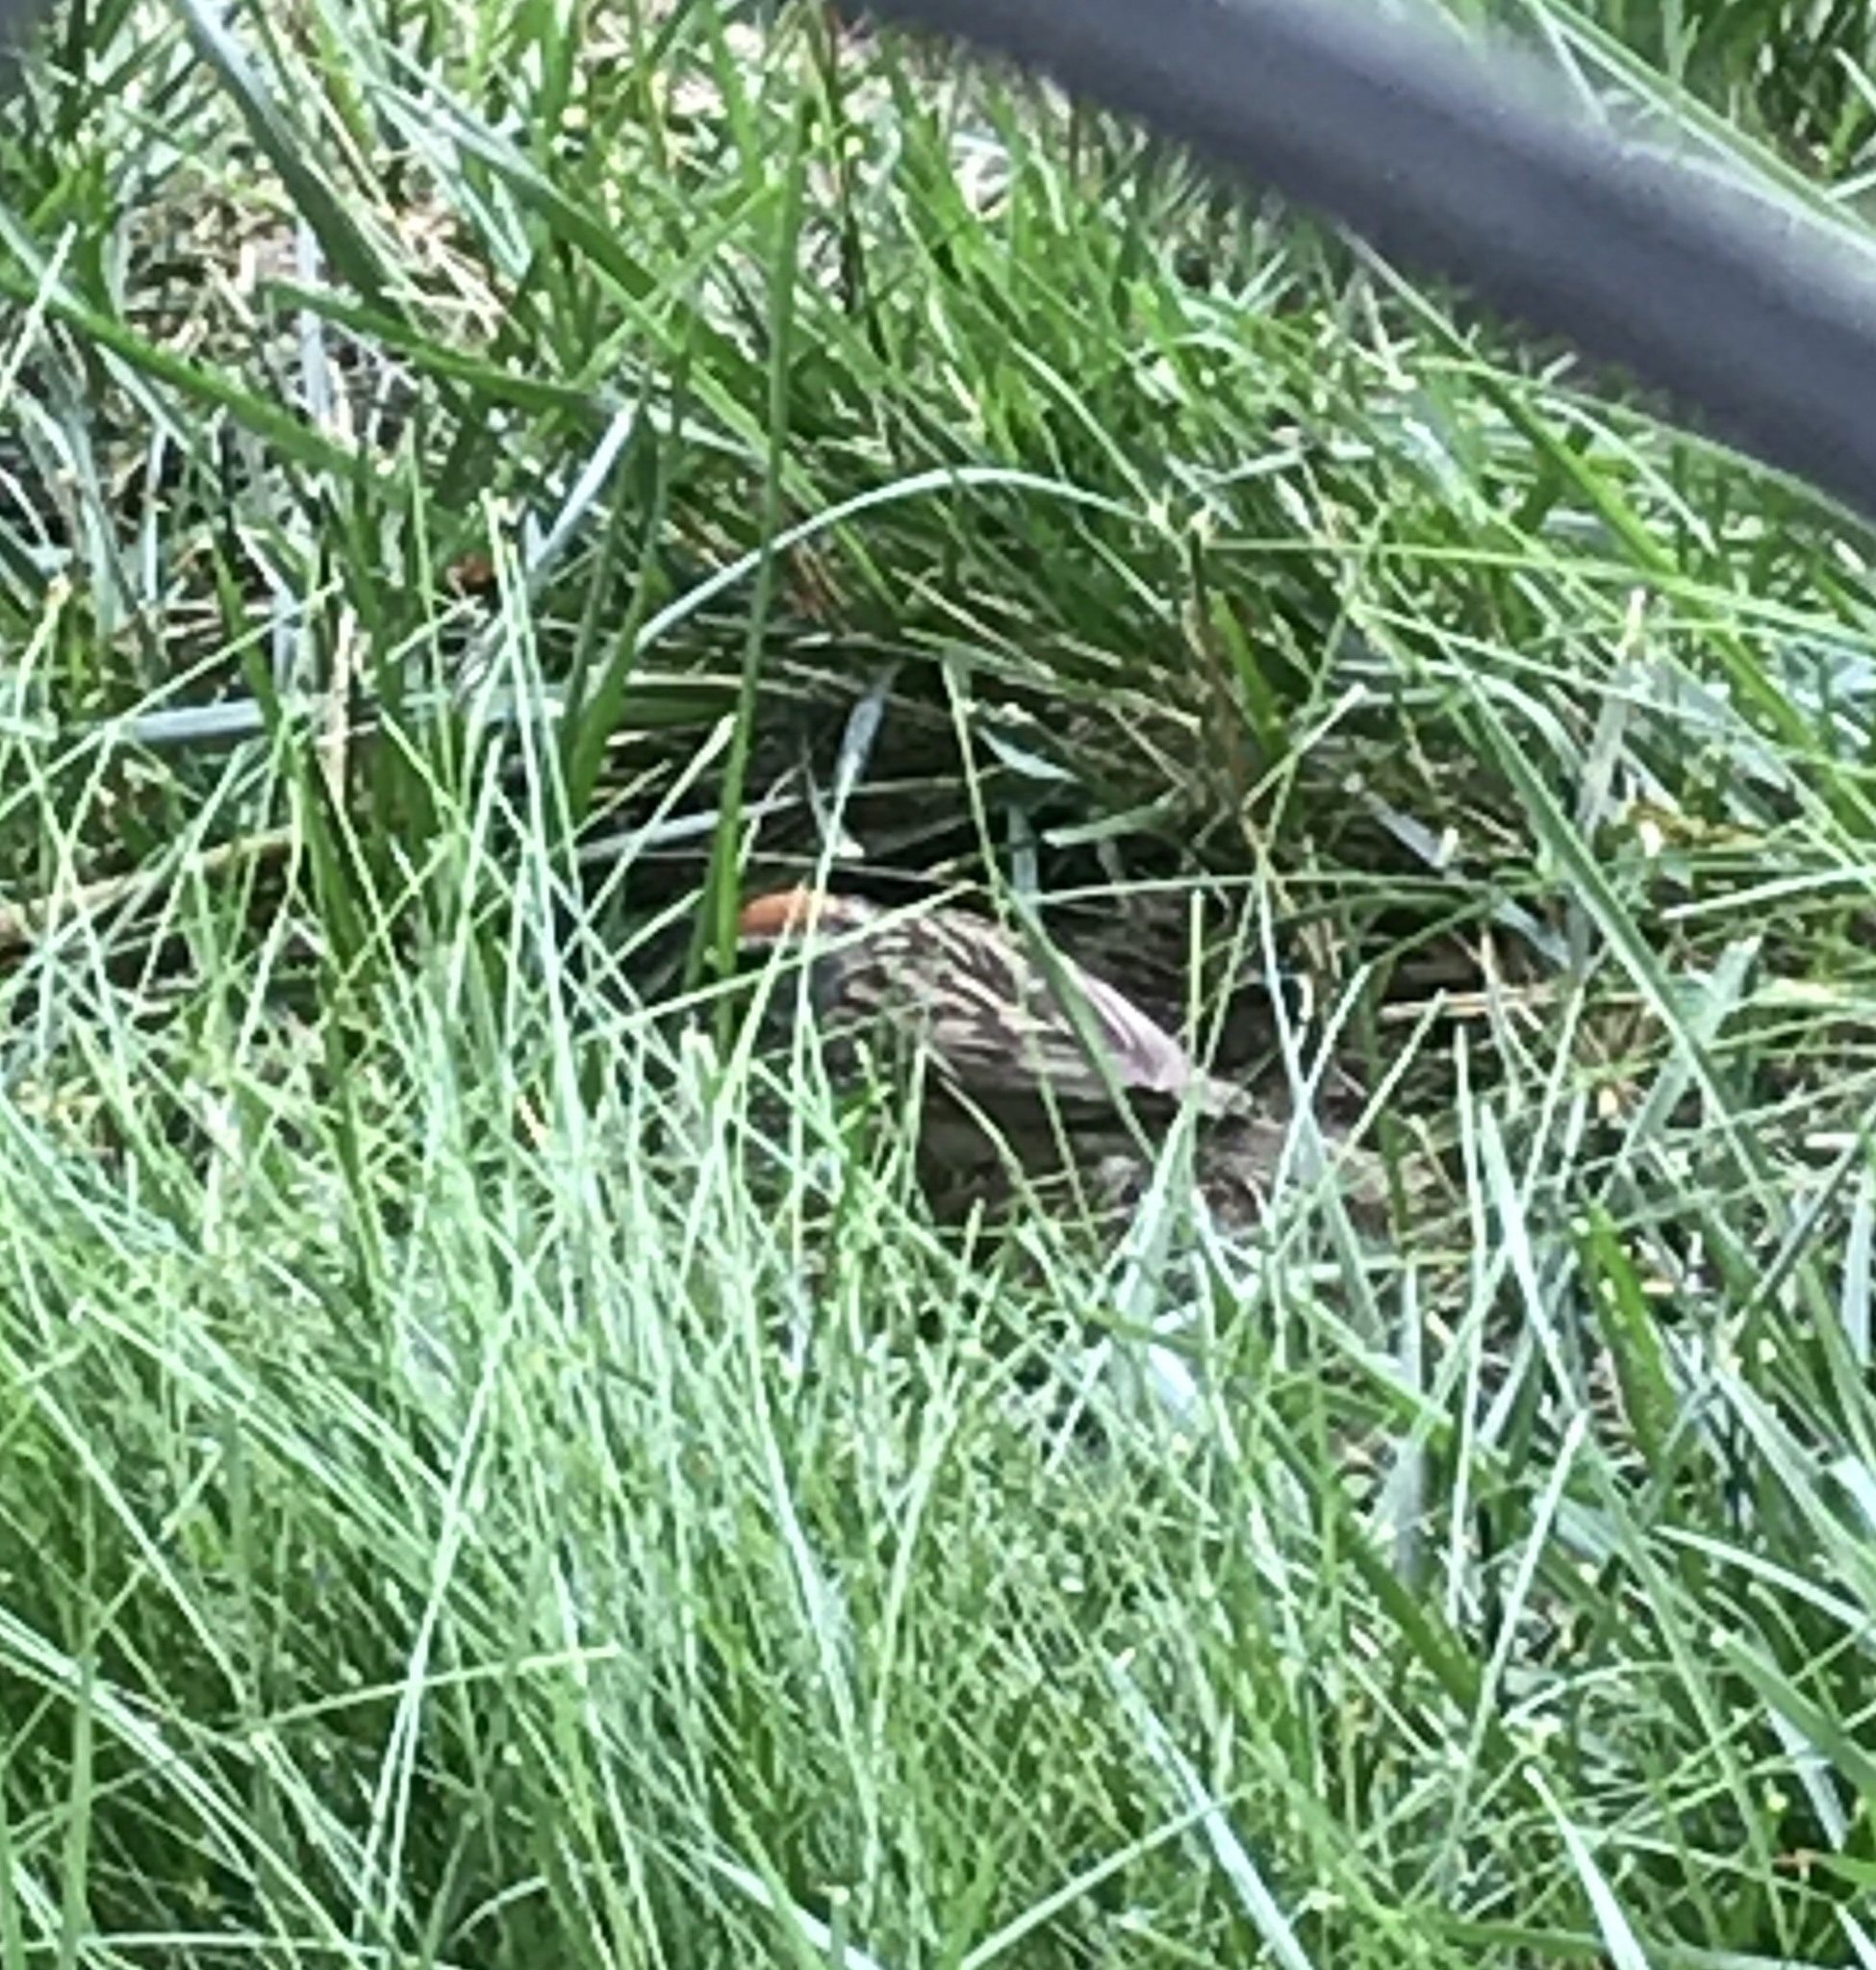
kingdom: Animalia
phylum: Chordata
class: Aves
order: Passeriformes
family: Passerellidae
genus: Spizella
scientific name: Spizella passerina
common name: Chipping sparrow
